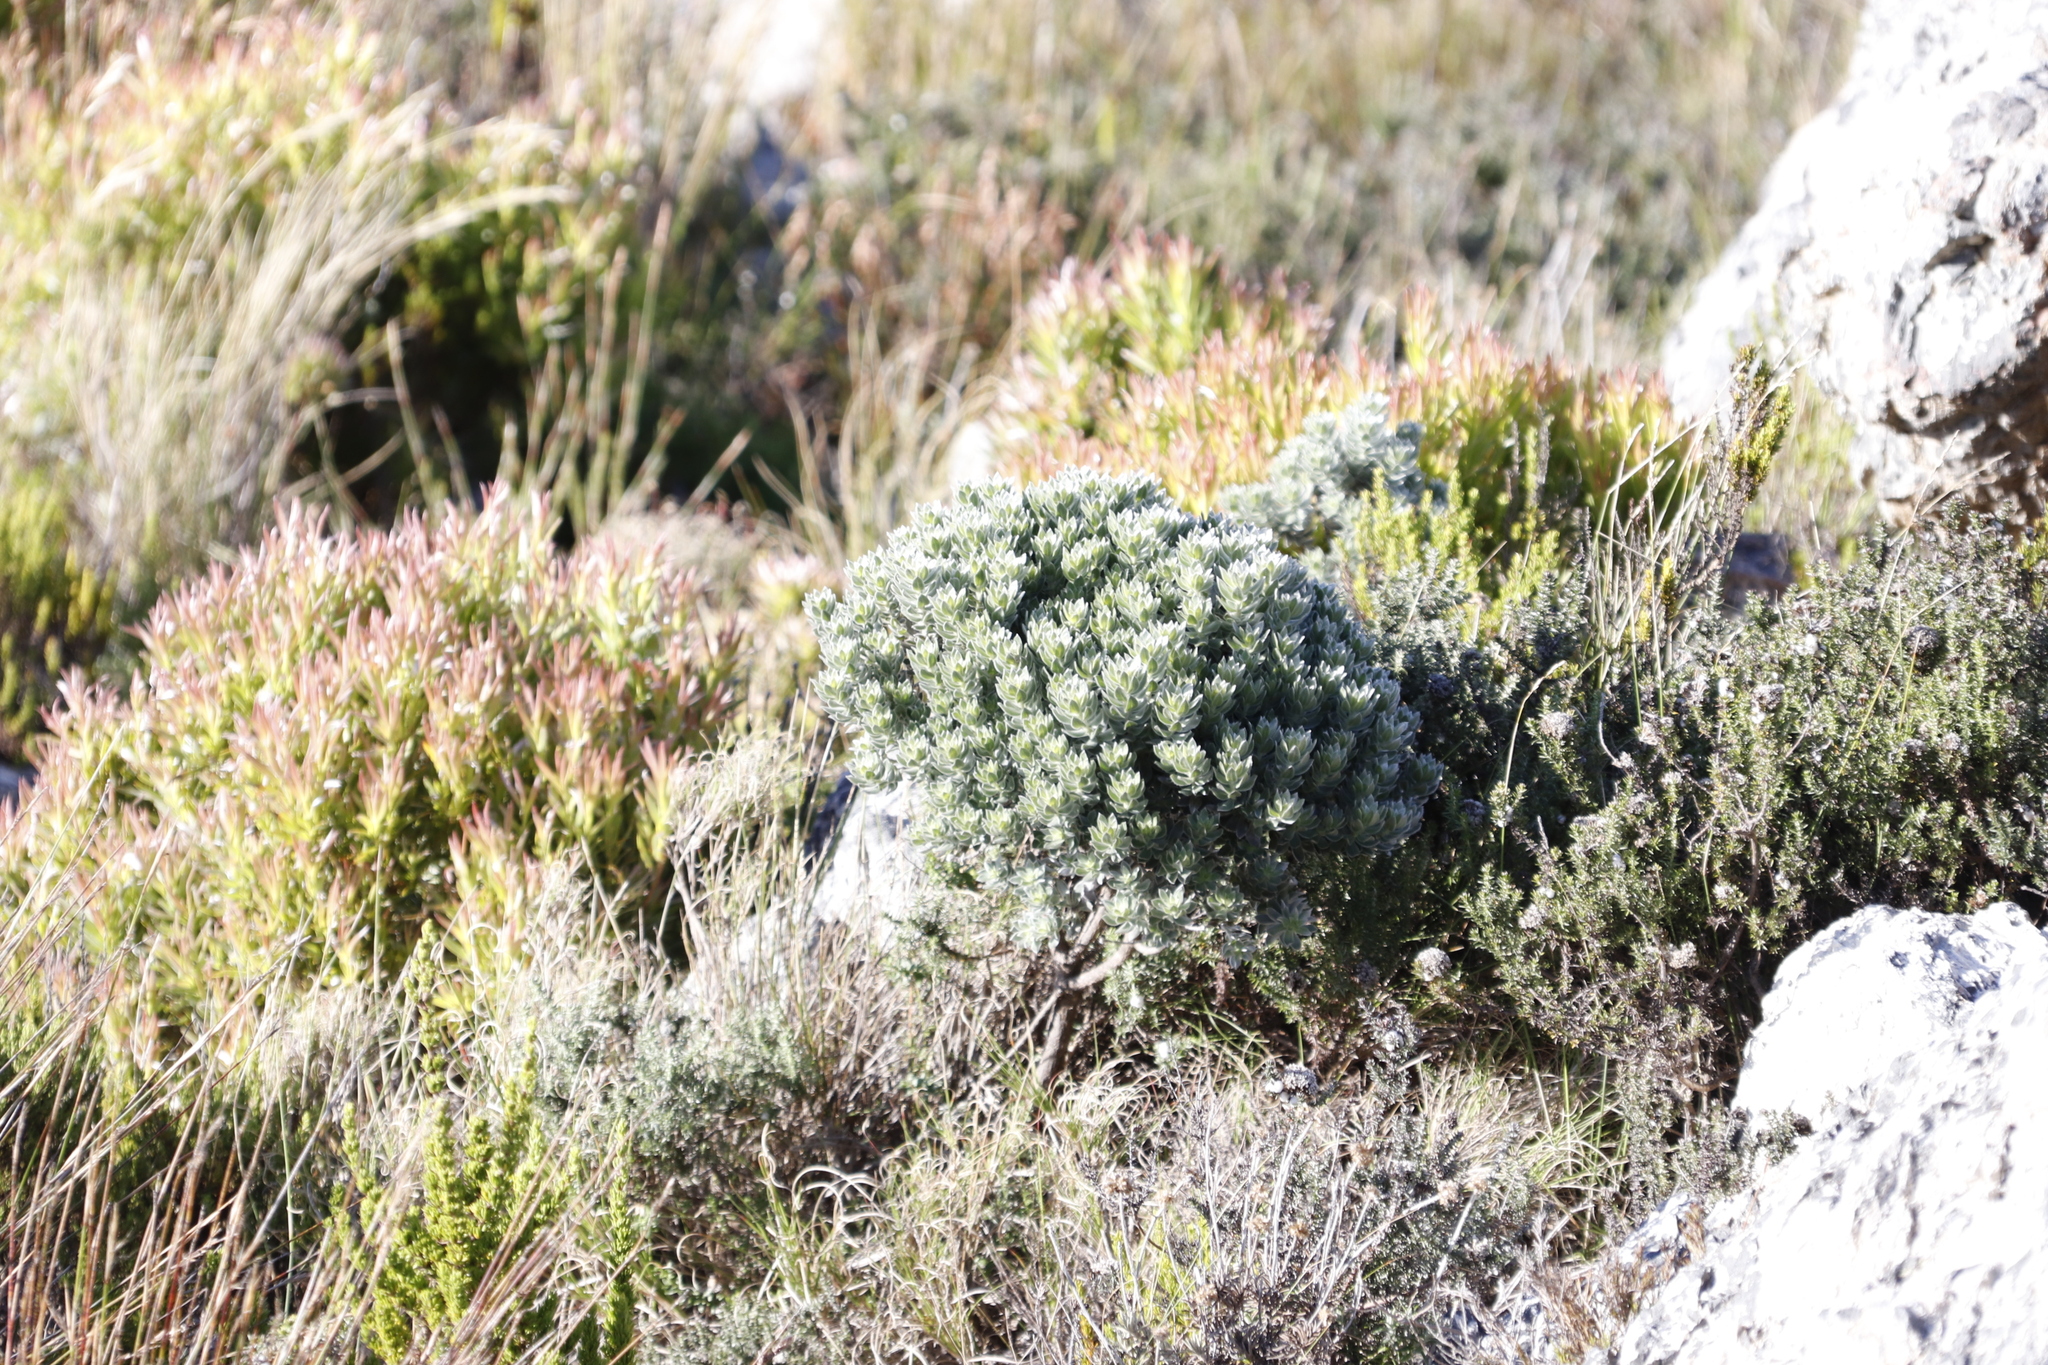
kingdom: Plantae
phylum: Tracheophyta
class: Magnoliopsida
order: Fabales
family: Fabaceae
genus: Xiphotheca
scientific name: Xiphotheca fruticosa
